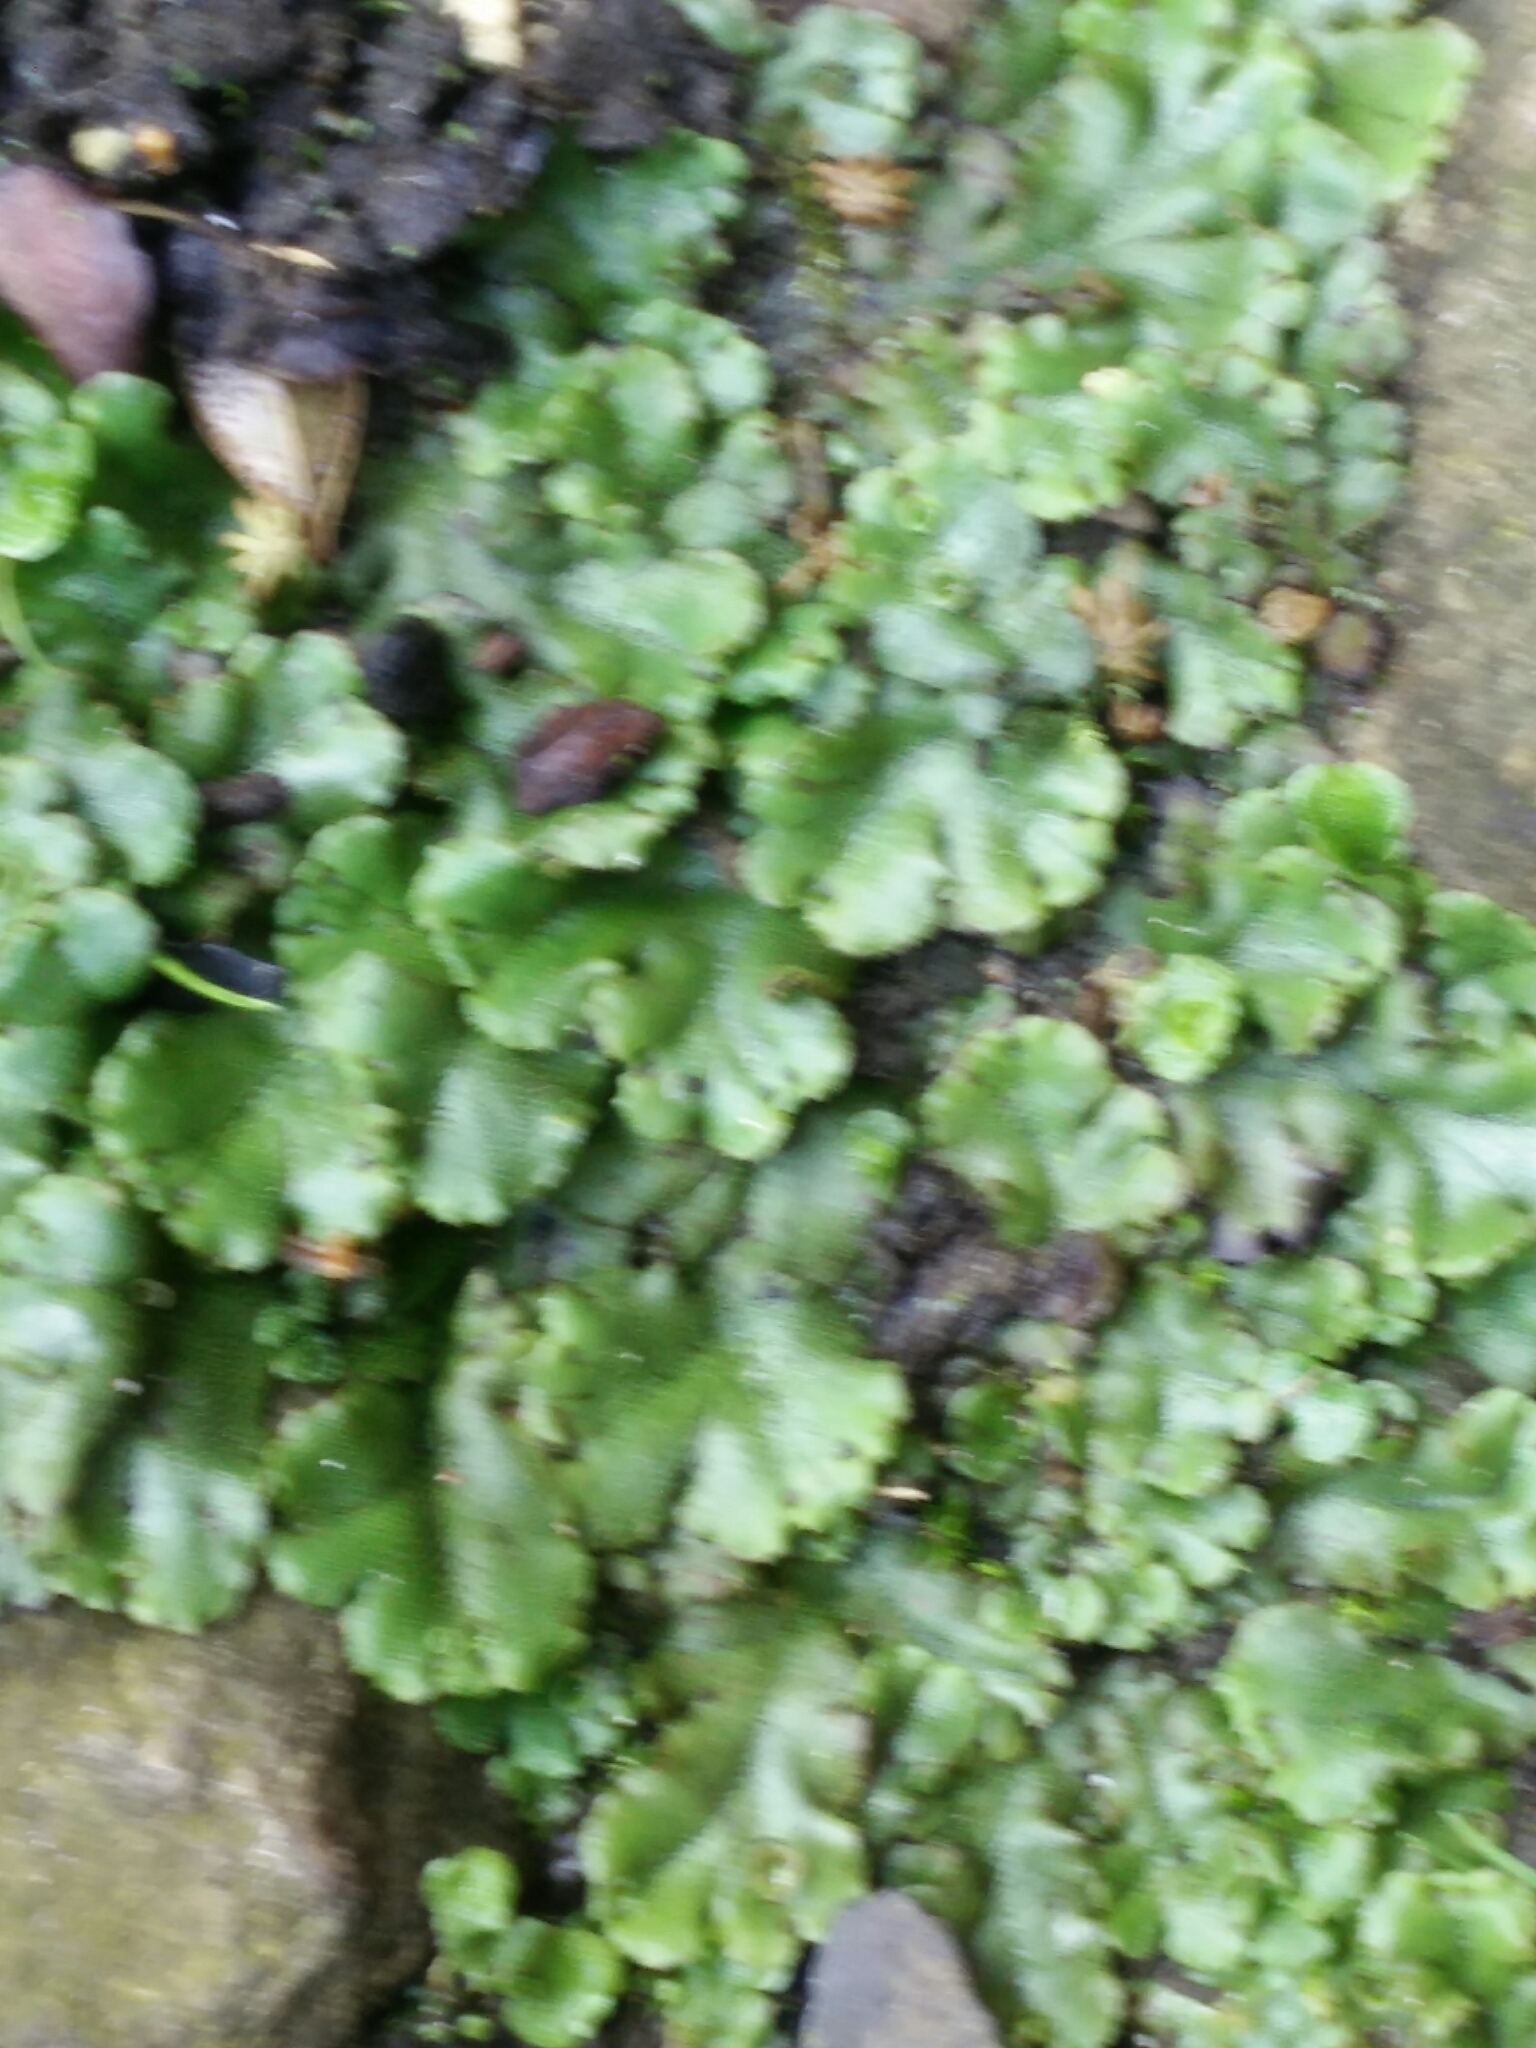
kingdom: Plantae
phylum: Marchantiophyta
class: Marchantiopsida
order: Marchantiales
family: Marchantiaceae
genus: Marchantia
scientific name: Marchantia polymorpha
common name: Common liverwort
